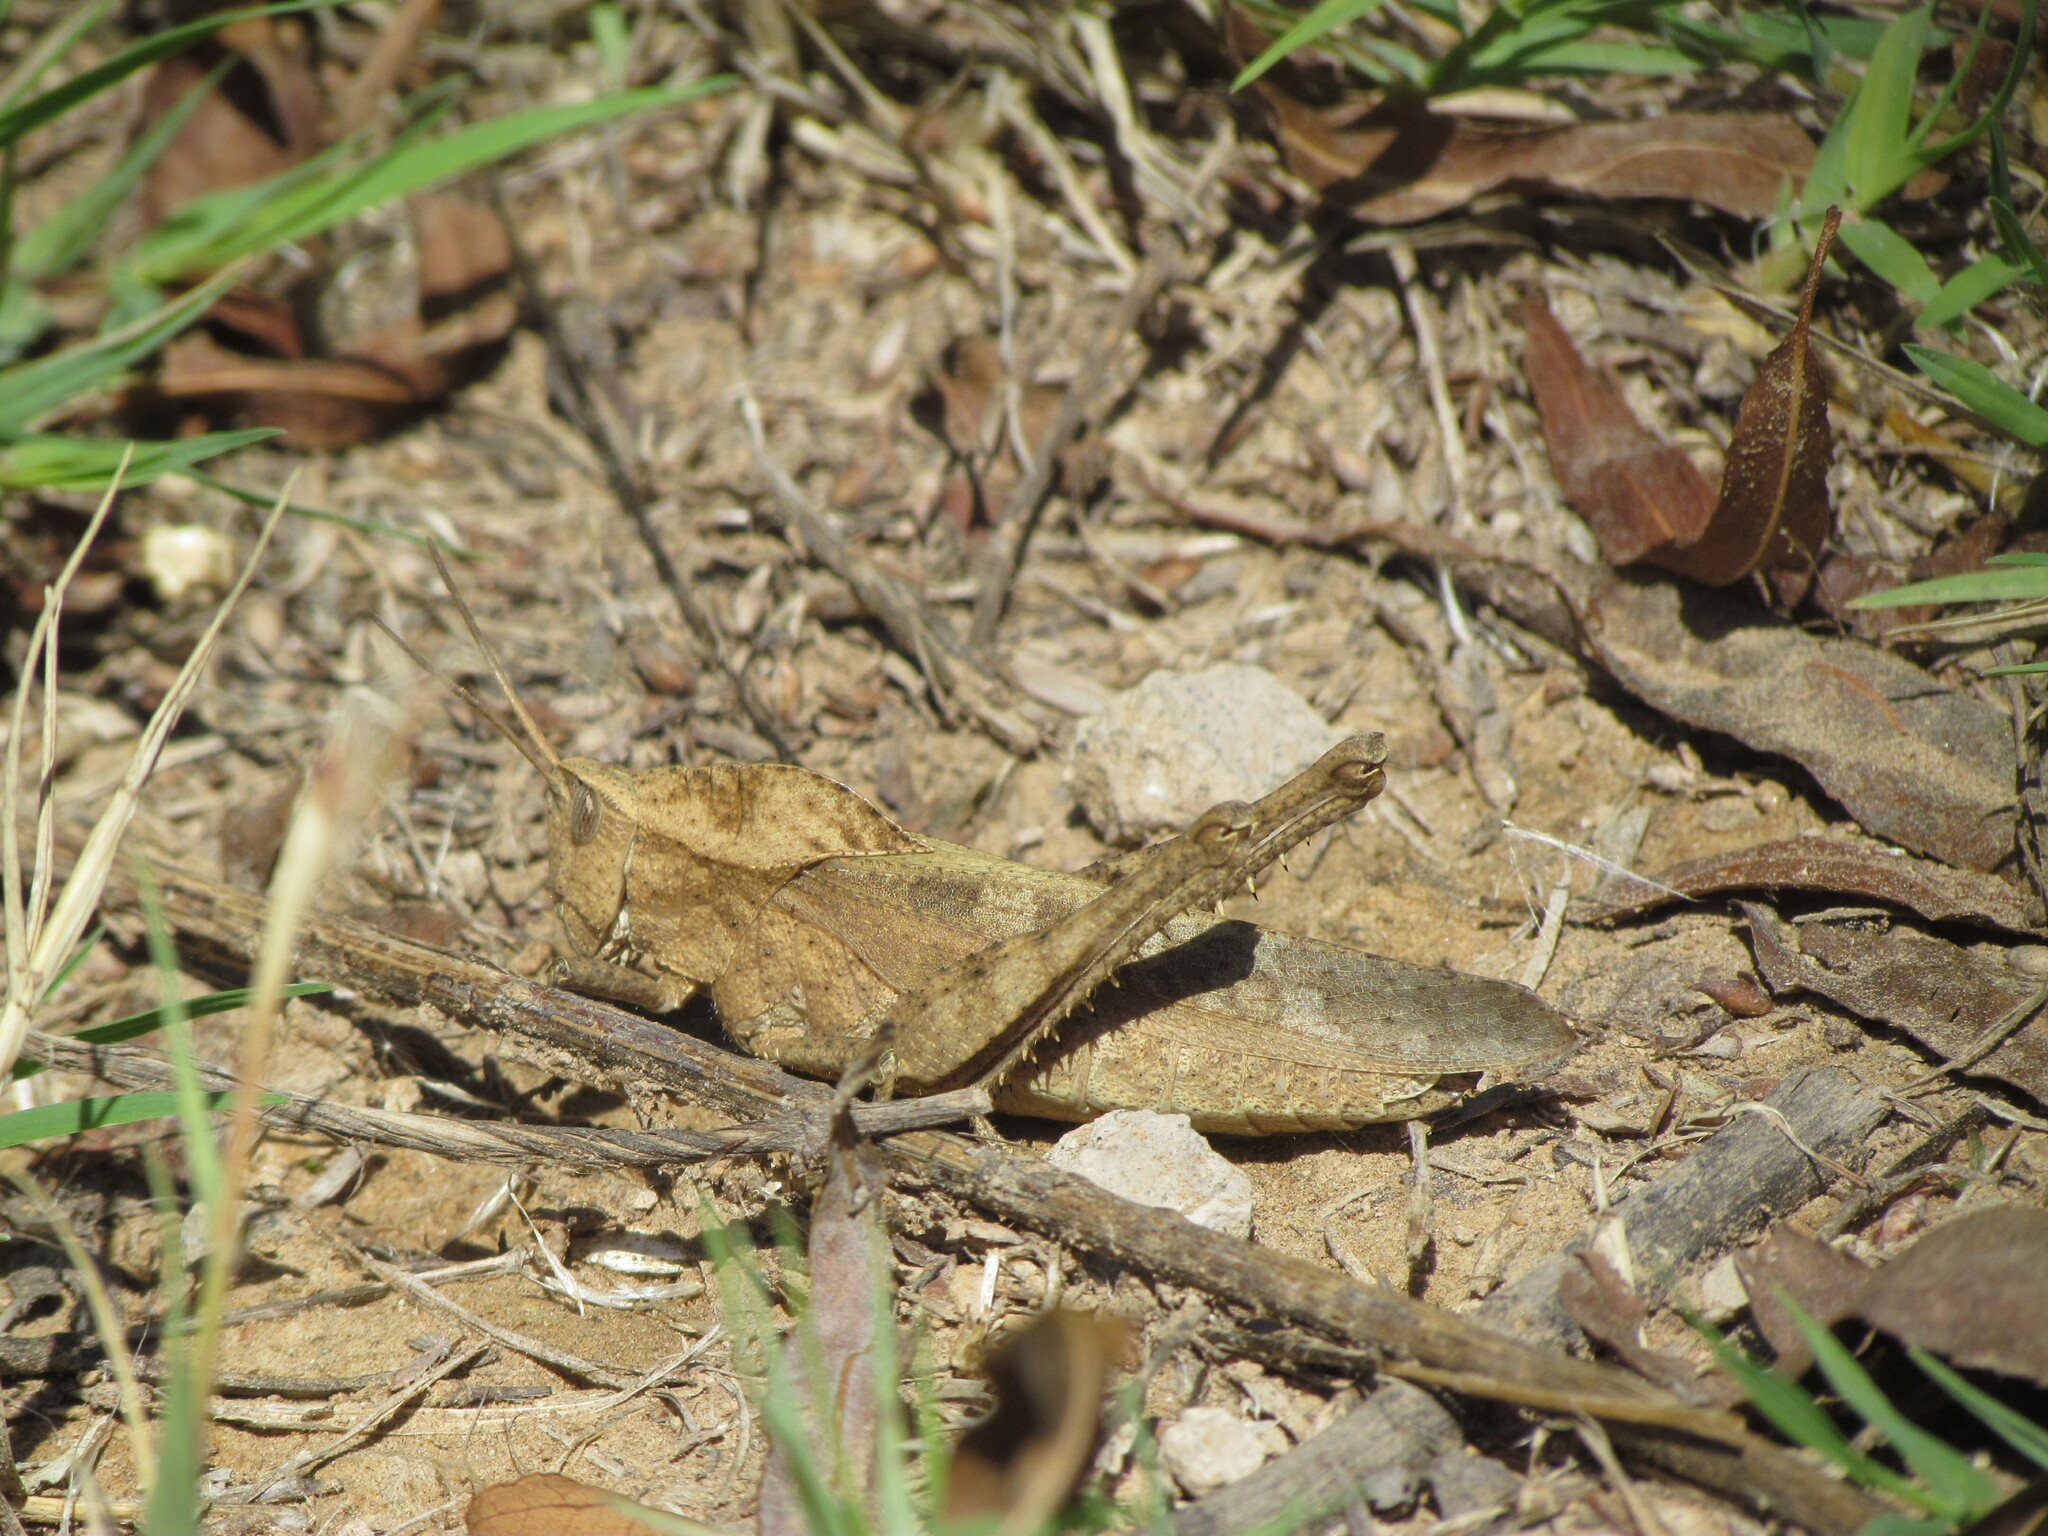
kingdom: Animalia
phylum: Arthropoda
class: Insecta
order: Orthoptera
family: Romaleidae
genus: Xyleus
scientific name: Xyleus discoideus
